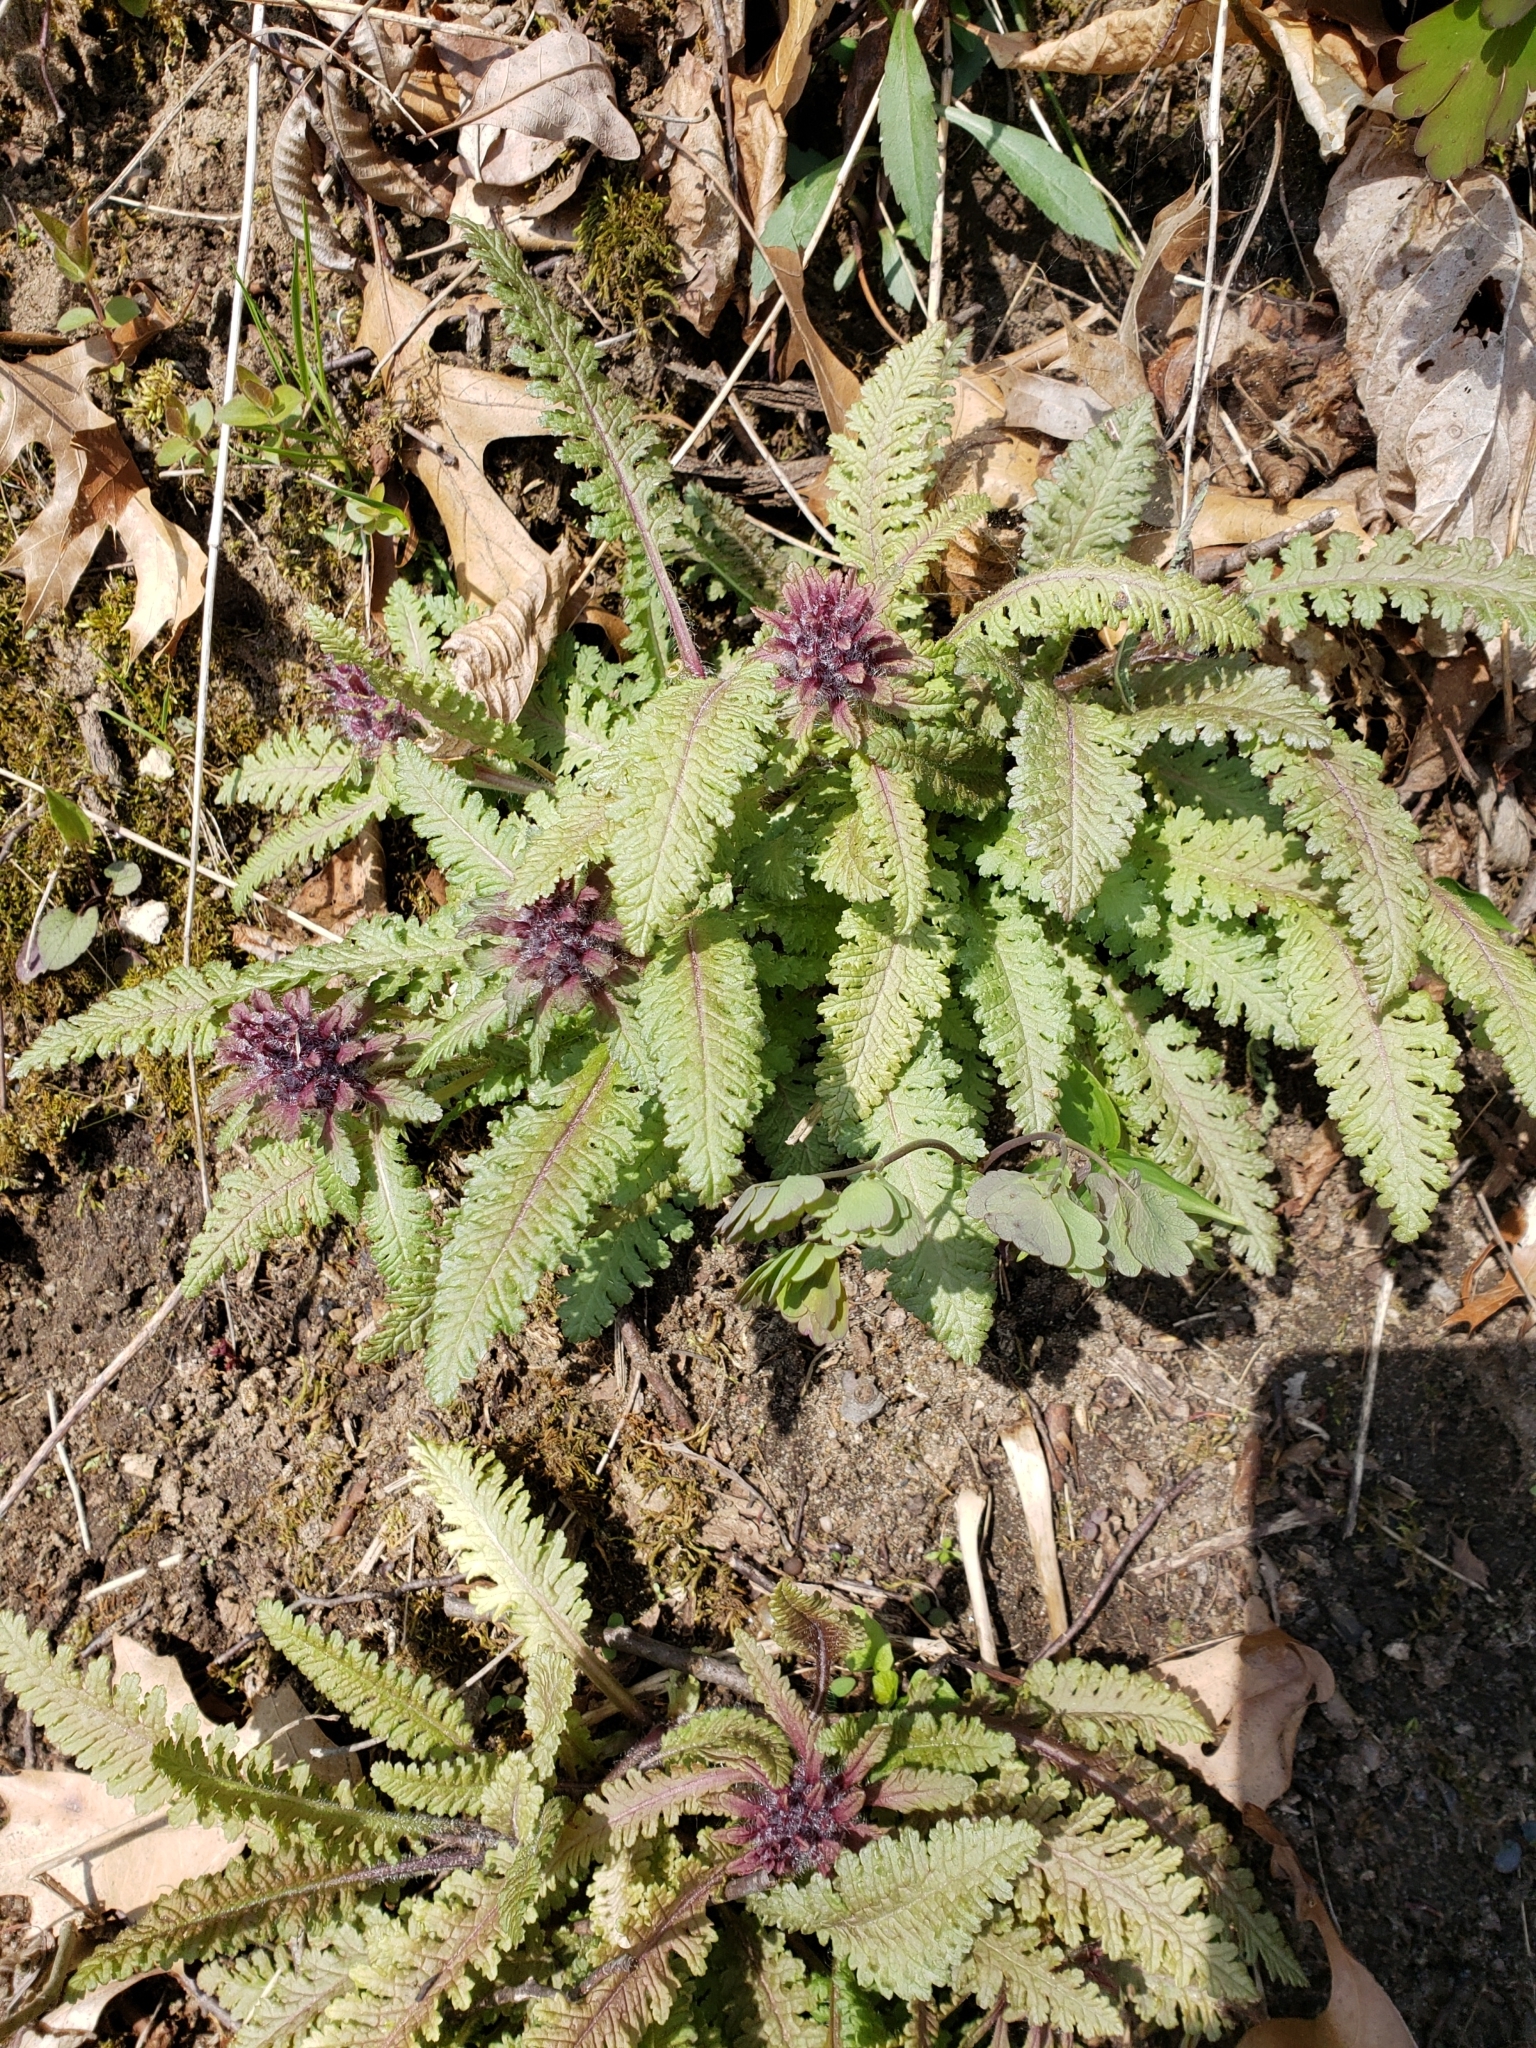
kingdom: Plantae
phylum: Tracheophyta
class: Magnoliopsida
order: Lamiales
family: Orobanchaceae
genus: Pedicularis
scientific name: Pedicularis canadensis
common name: Early lousewort
